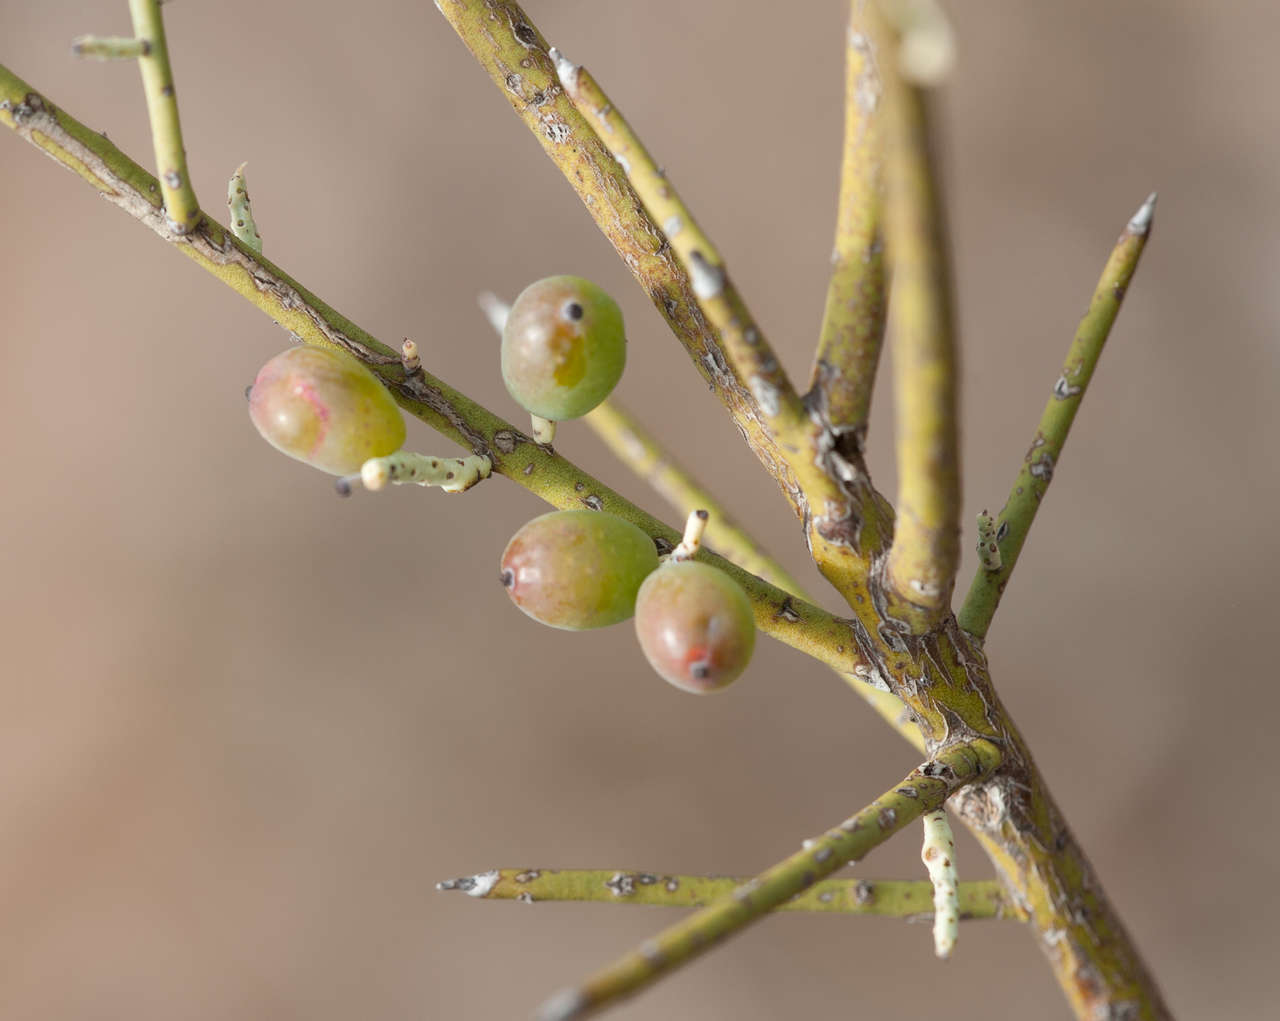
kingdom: Plantae
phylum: Tracheophyta
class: Magnoliopsida
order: Santalales
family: Amphorogynaceae
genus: Leptomeria
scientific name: Leptomeria aphylla
